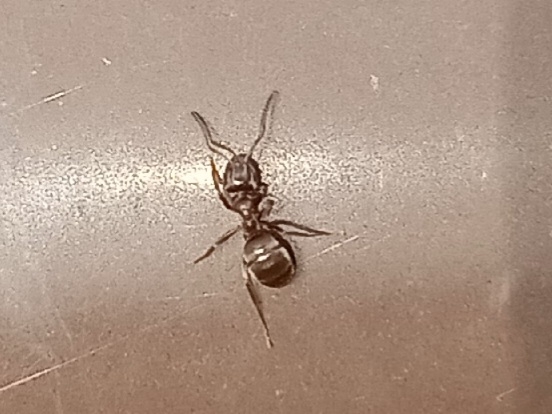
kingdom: Animalia
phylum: Arthropoda
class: Insecta
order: Hymenoptera
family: Formicidae
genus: Lasius
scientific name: Lasius
